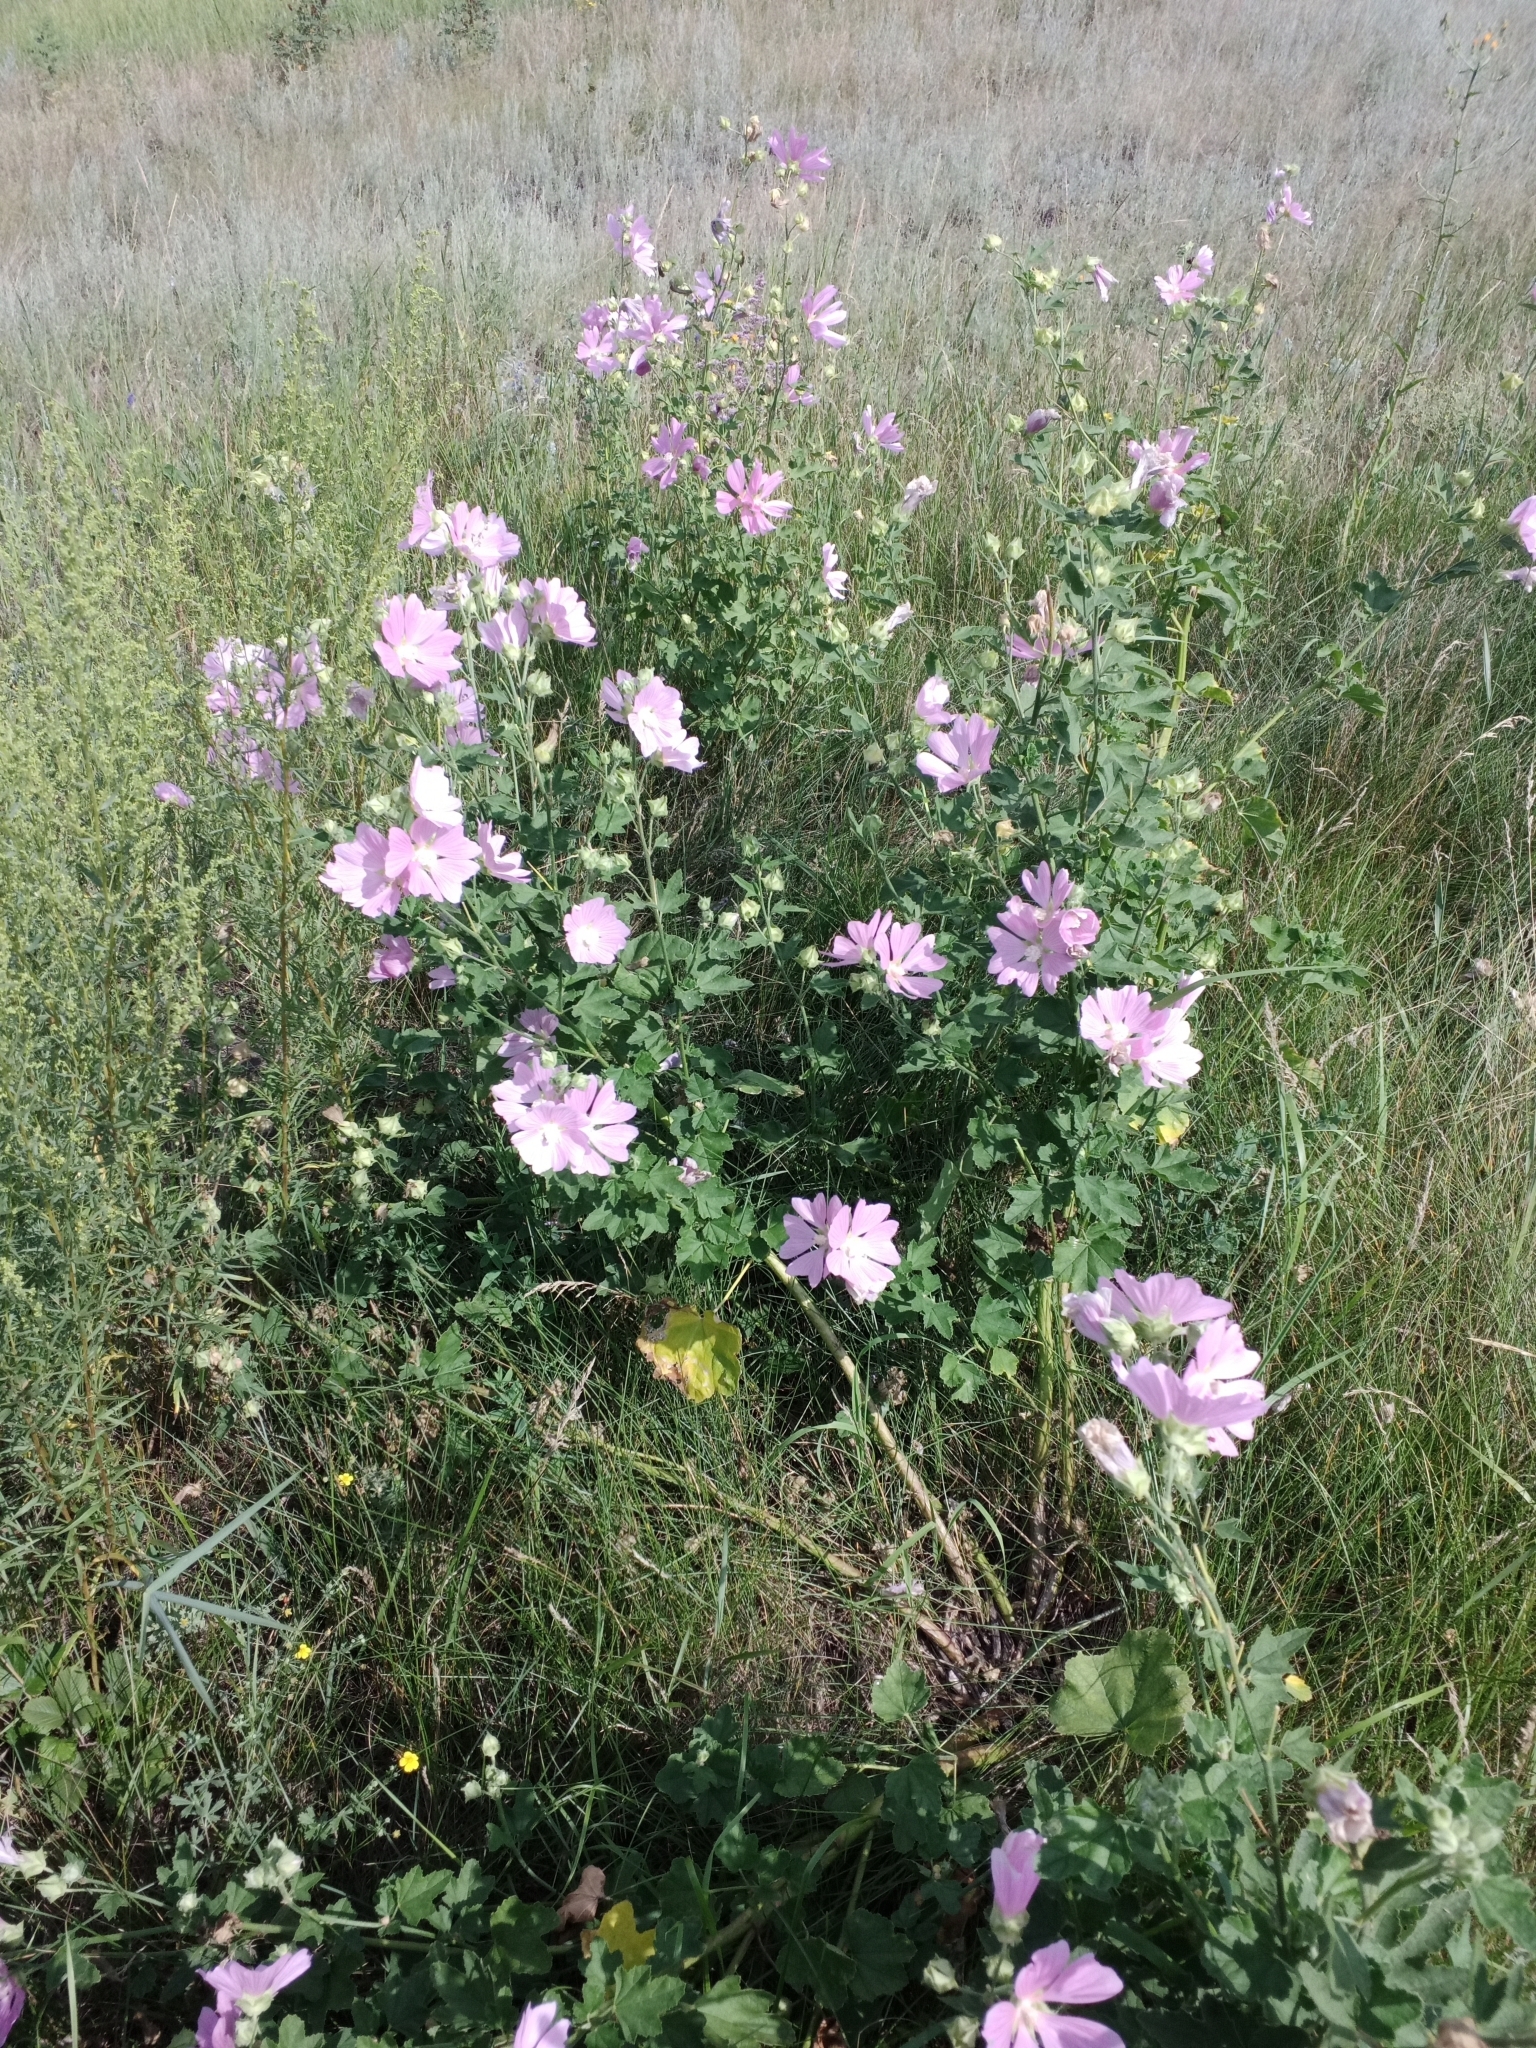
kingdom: Plantae
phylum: Tracheophyta
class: Magnoliopsida
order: Malvales
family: Malvaceae
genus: Malva
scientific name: Malva thuringiaca
